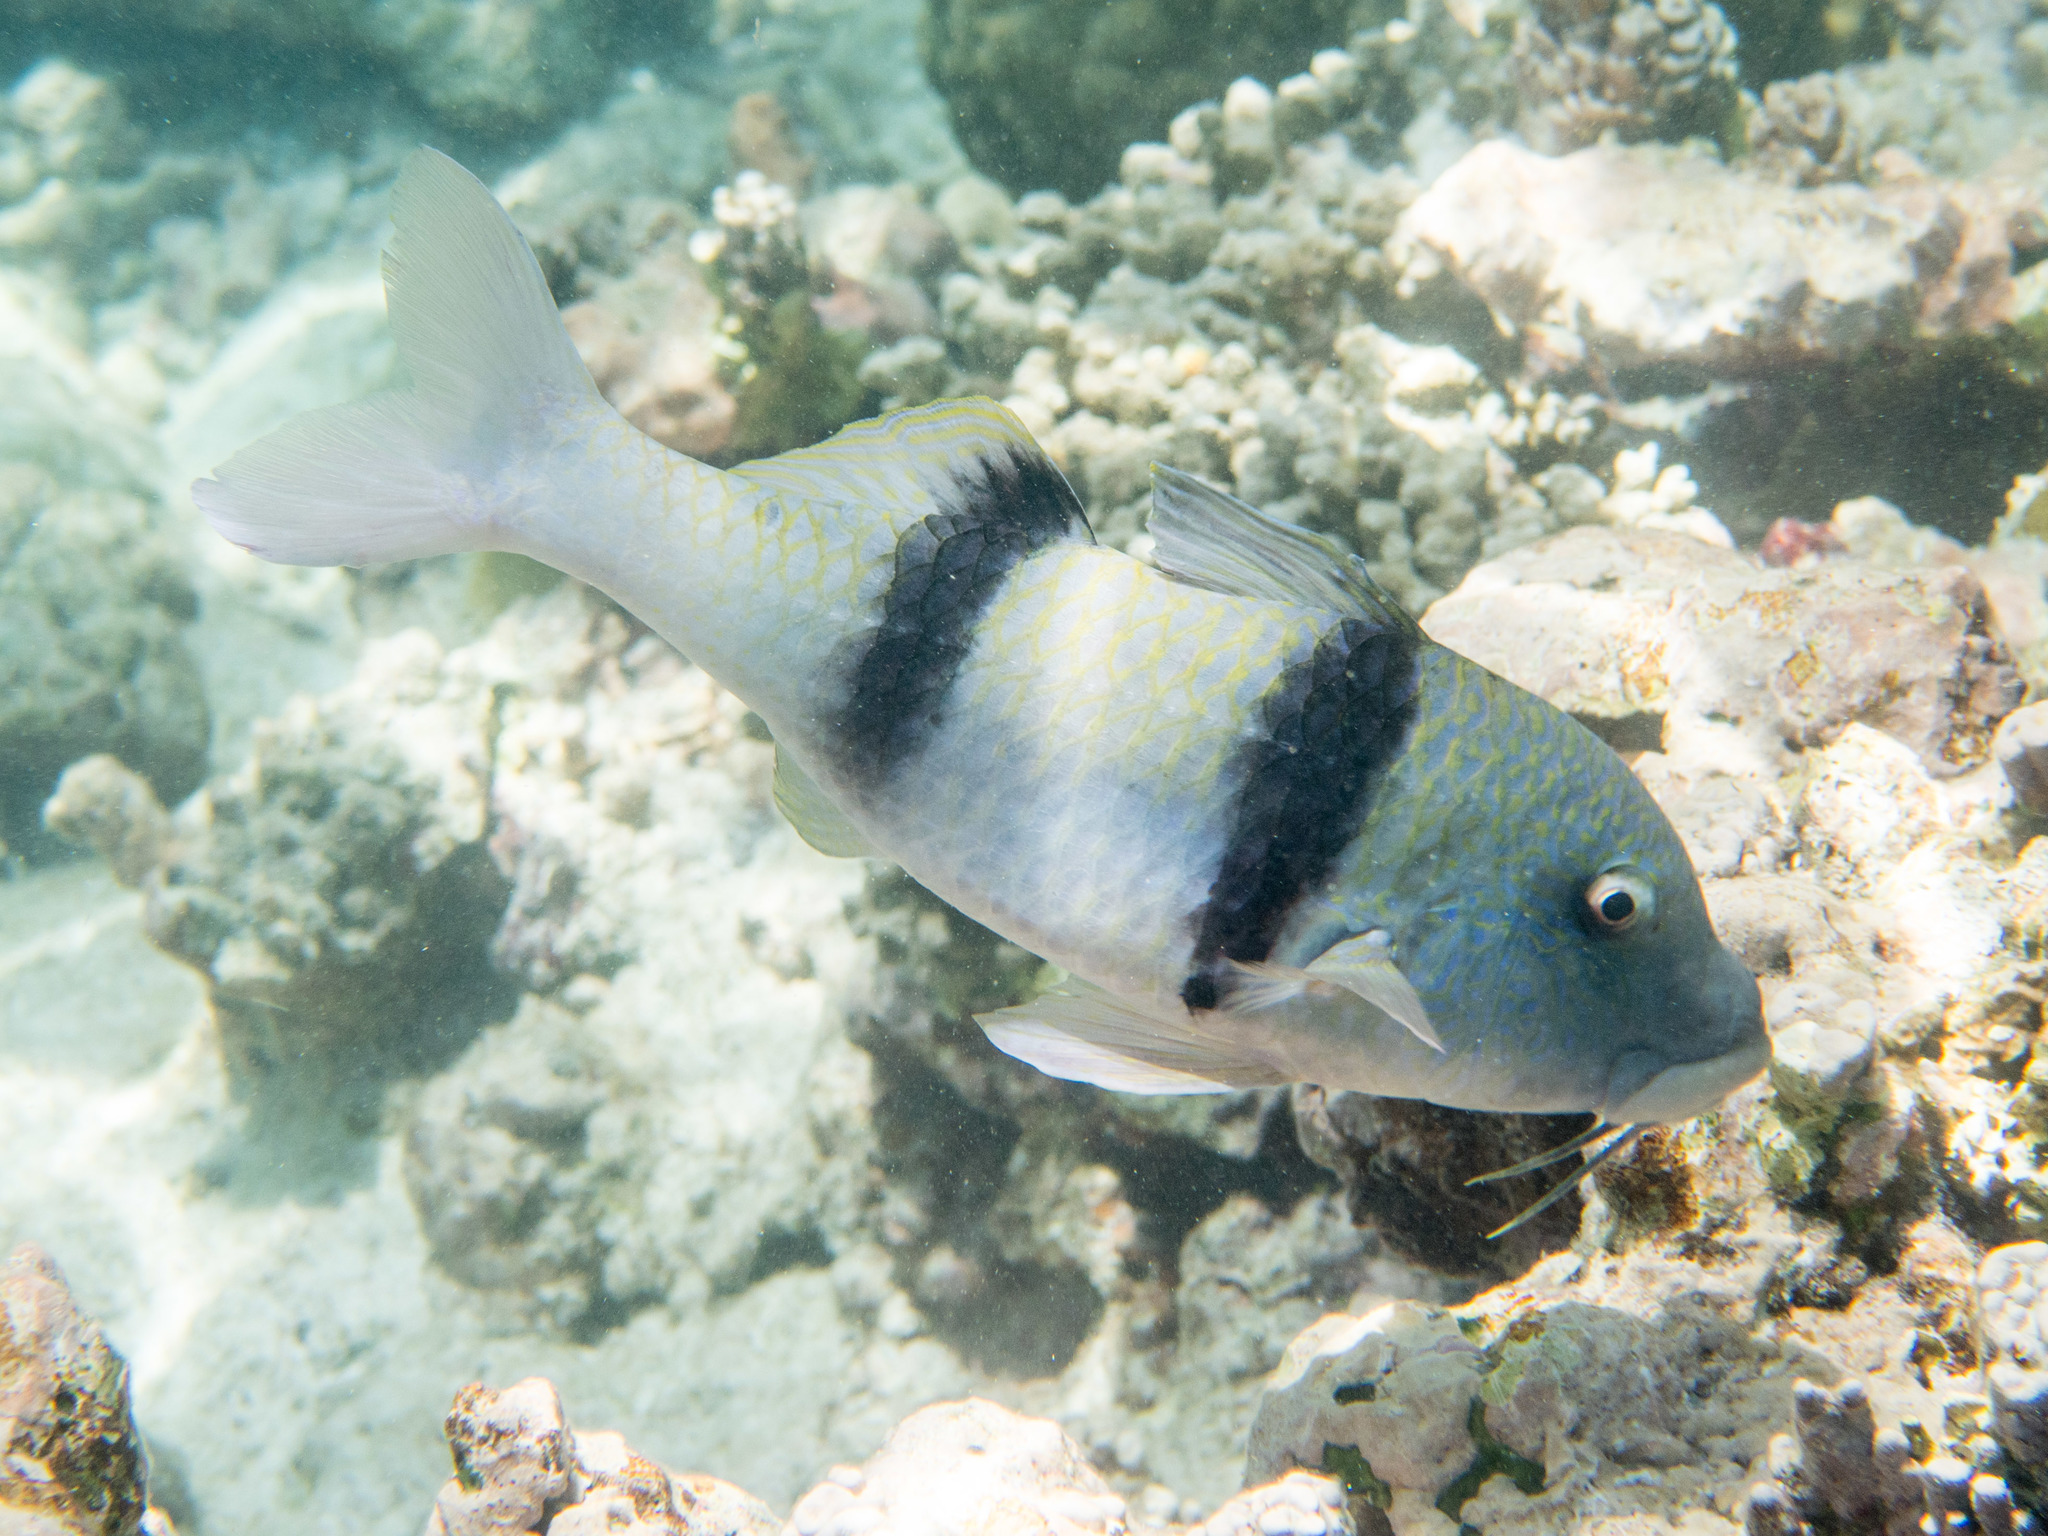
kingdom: Animalia
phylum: Chordata
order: Perciformes
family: Mullidae
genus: Parupeneus
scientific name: Parupeneus trifasciatus
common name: Doublebar goatfish
